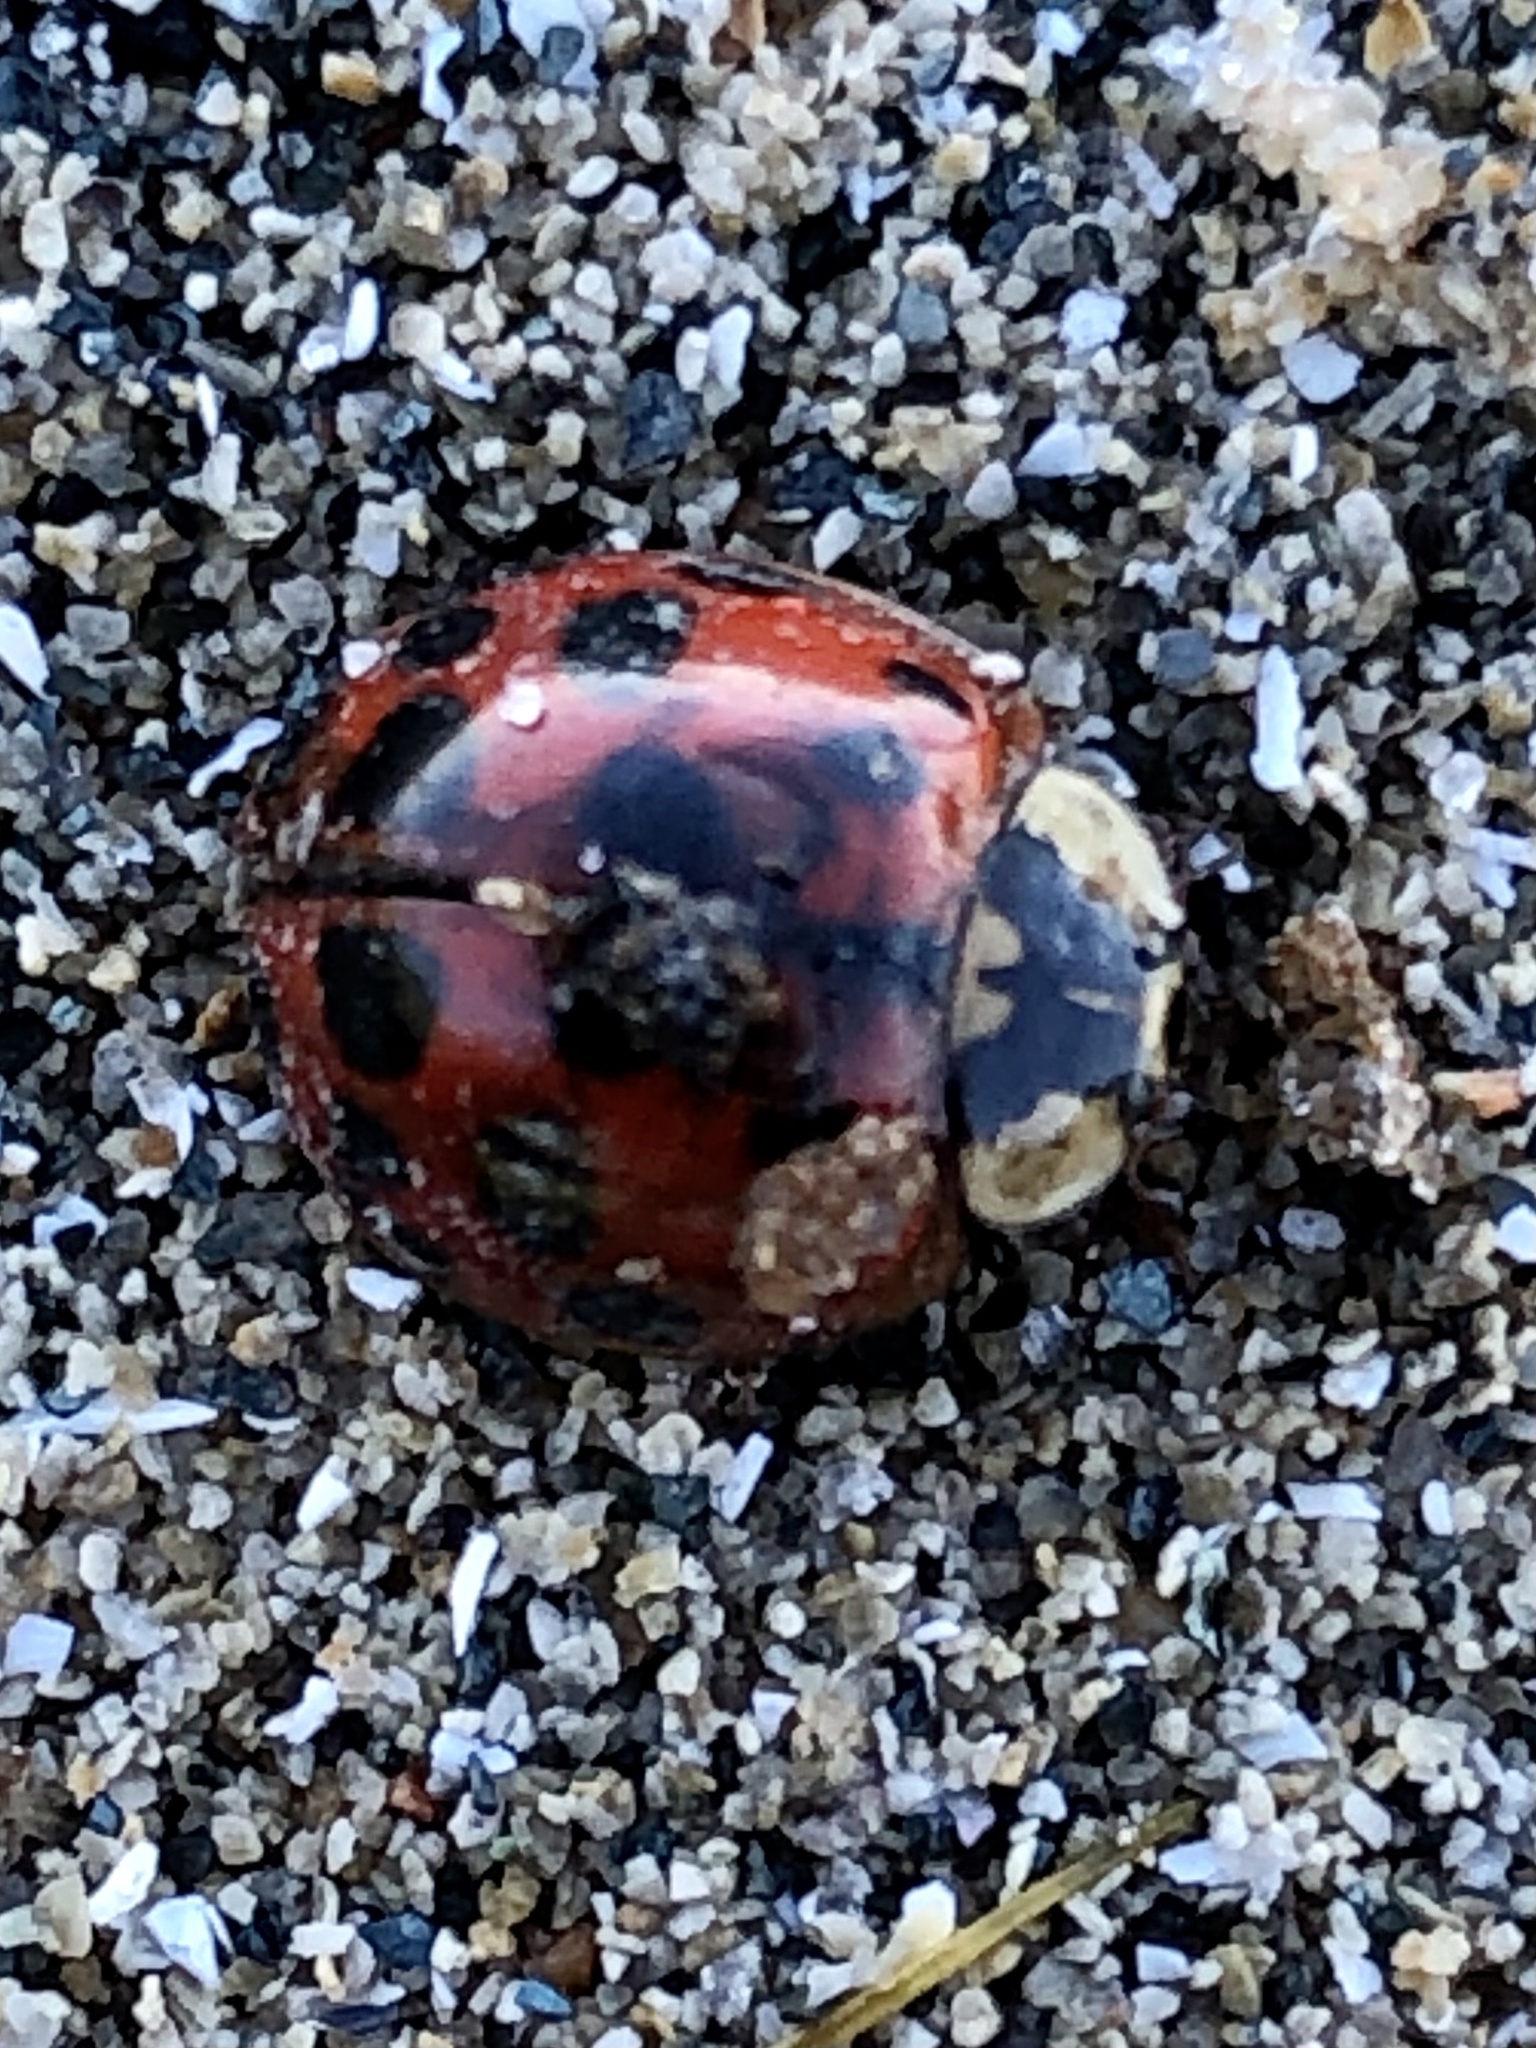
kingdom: Animalia
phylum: Arthropoda
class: Insecta
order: Coleoptera
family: Coccinellidae
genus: Harmonia
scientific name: Harmonia axyridis
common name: Harlequin ladybird
